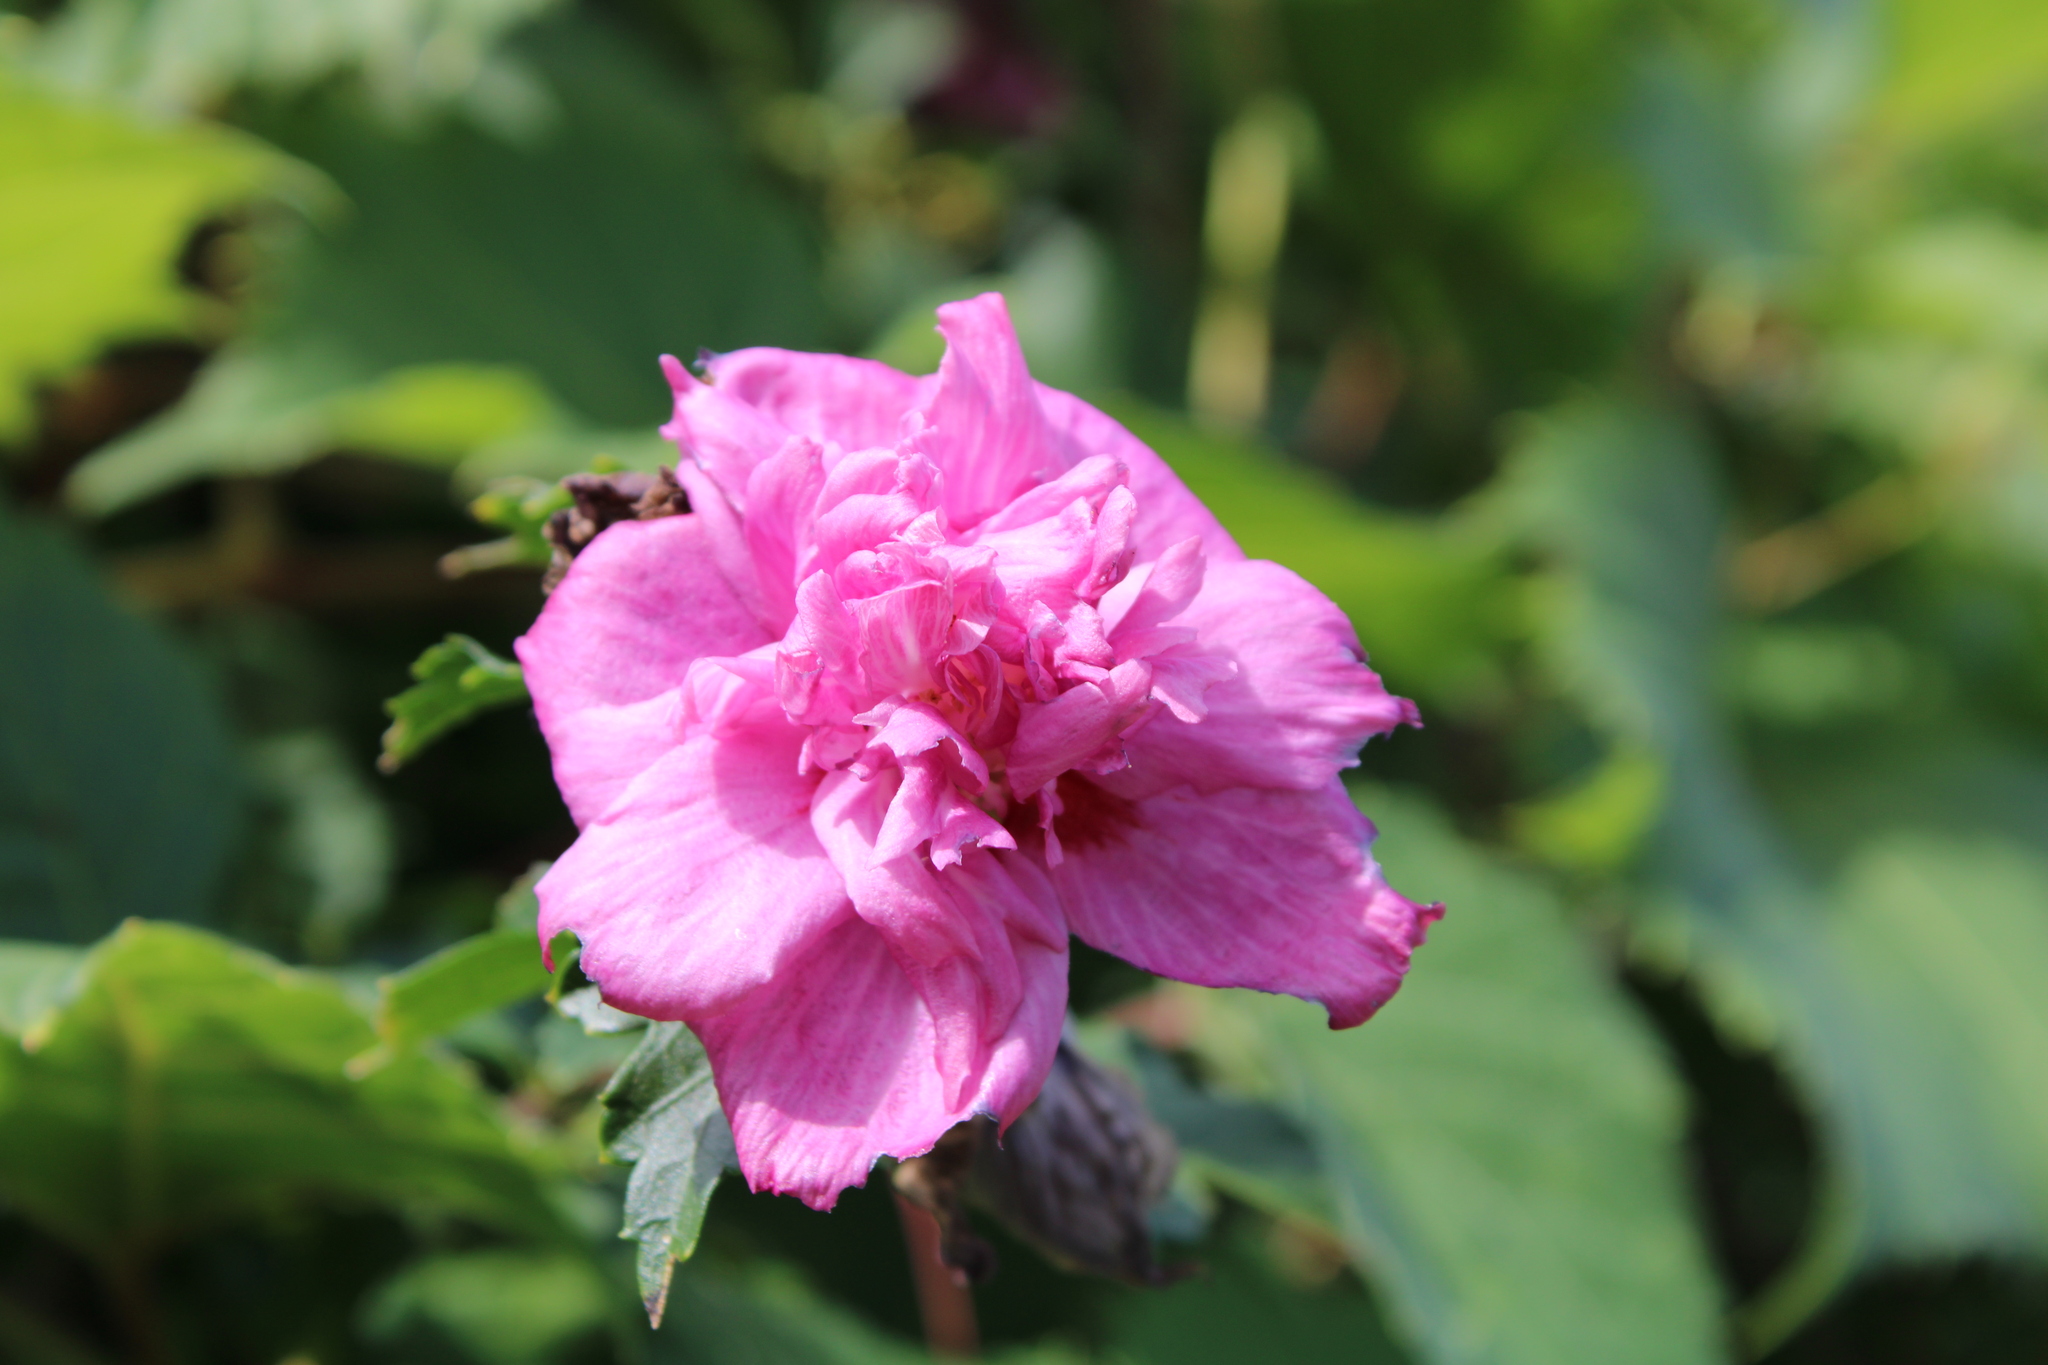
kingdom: Plantae
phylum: Tracheophyta
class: Magnoliopsida
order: Malvales
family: Malvaceae
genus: Hibiscus
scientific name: Hibiscus syriacus
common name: Syrian ketmia
